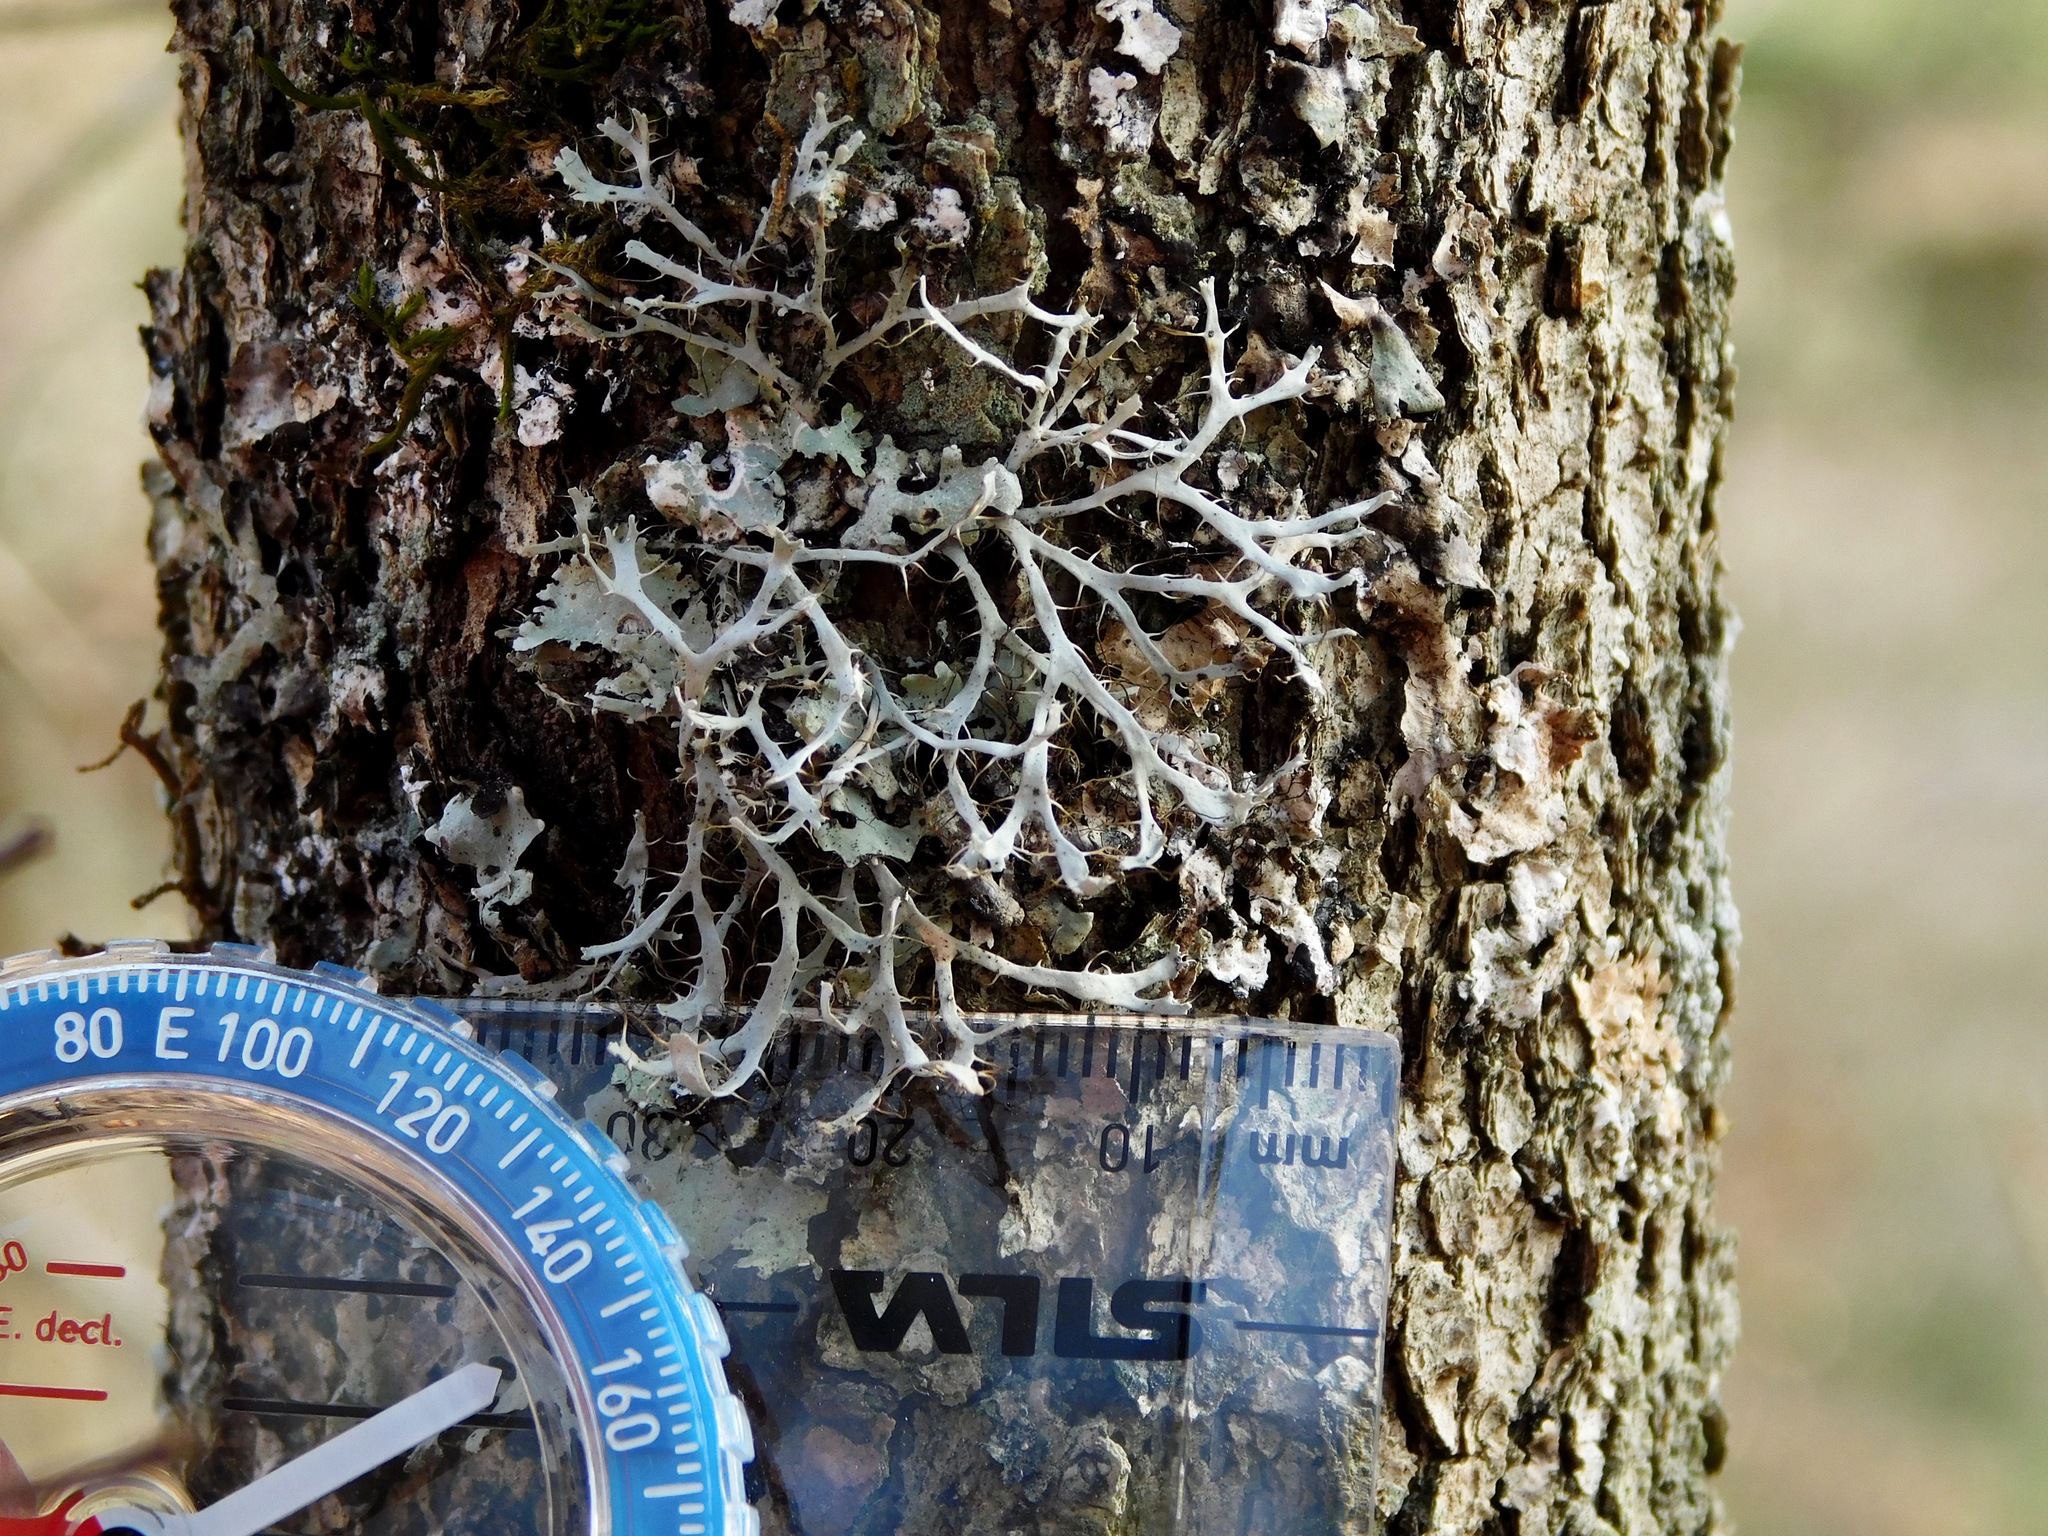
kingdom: Fungi
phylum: Ascomycota
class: Lecanoromycetes
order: Caliciales
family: Physciaceae
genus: Leucodermia
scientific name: Leucodermia leucomelos
